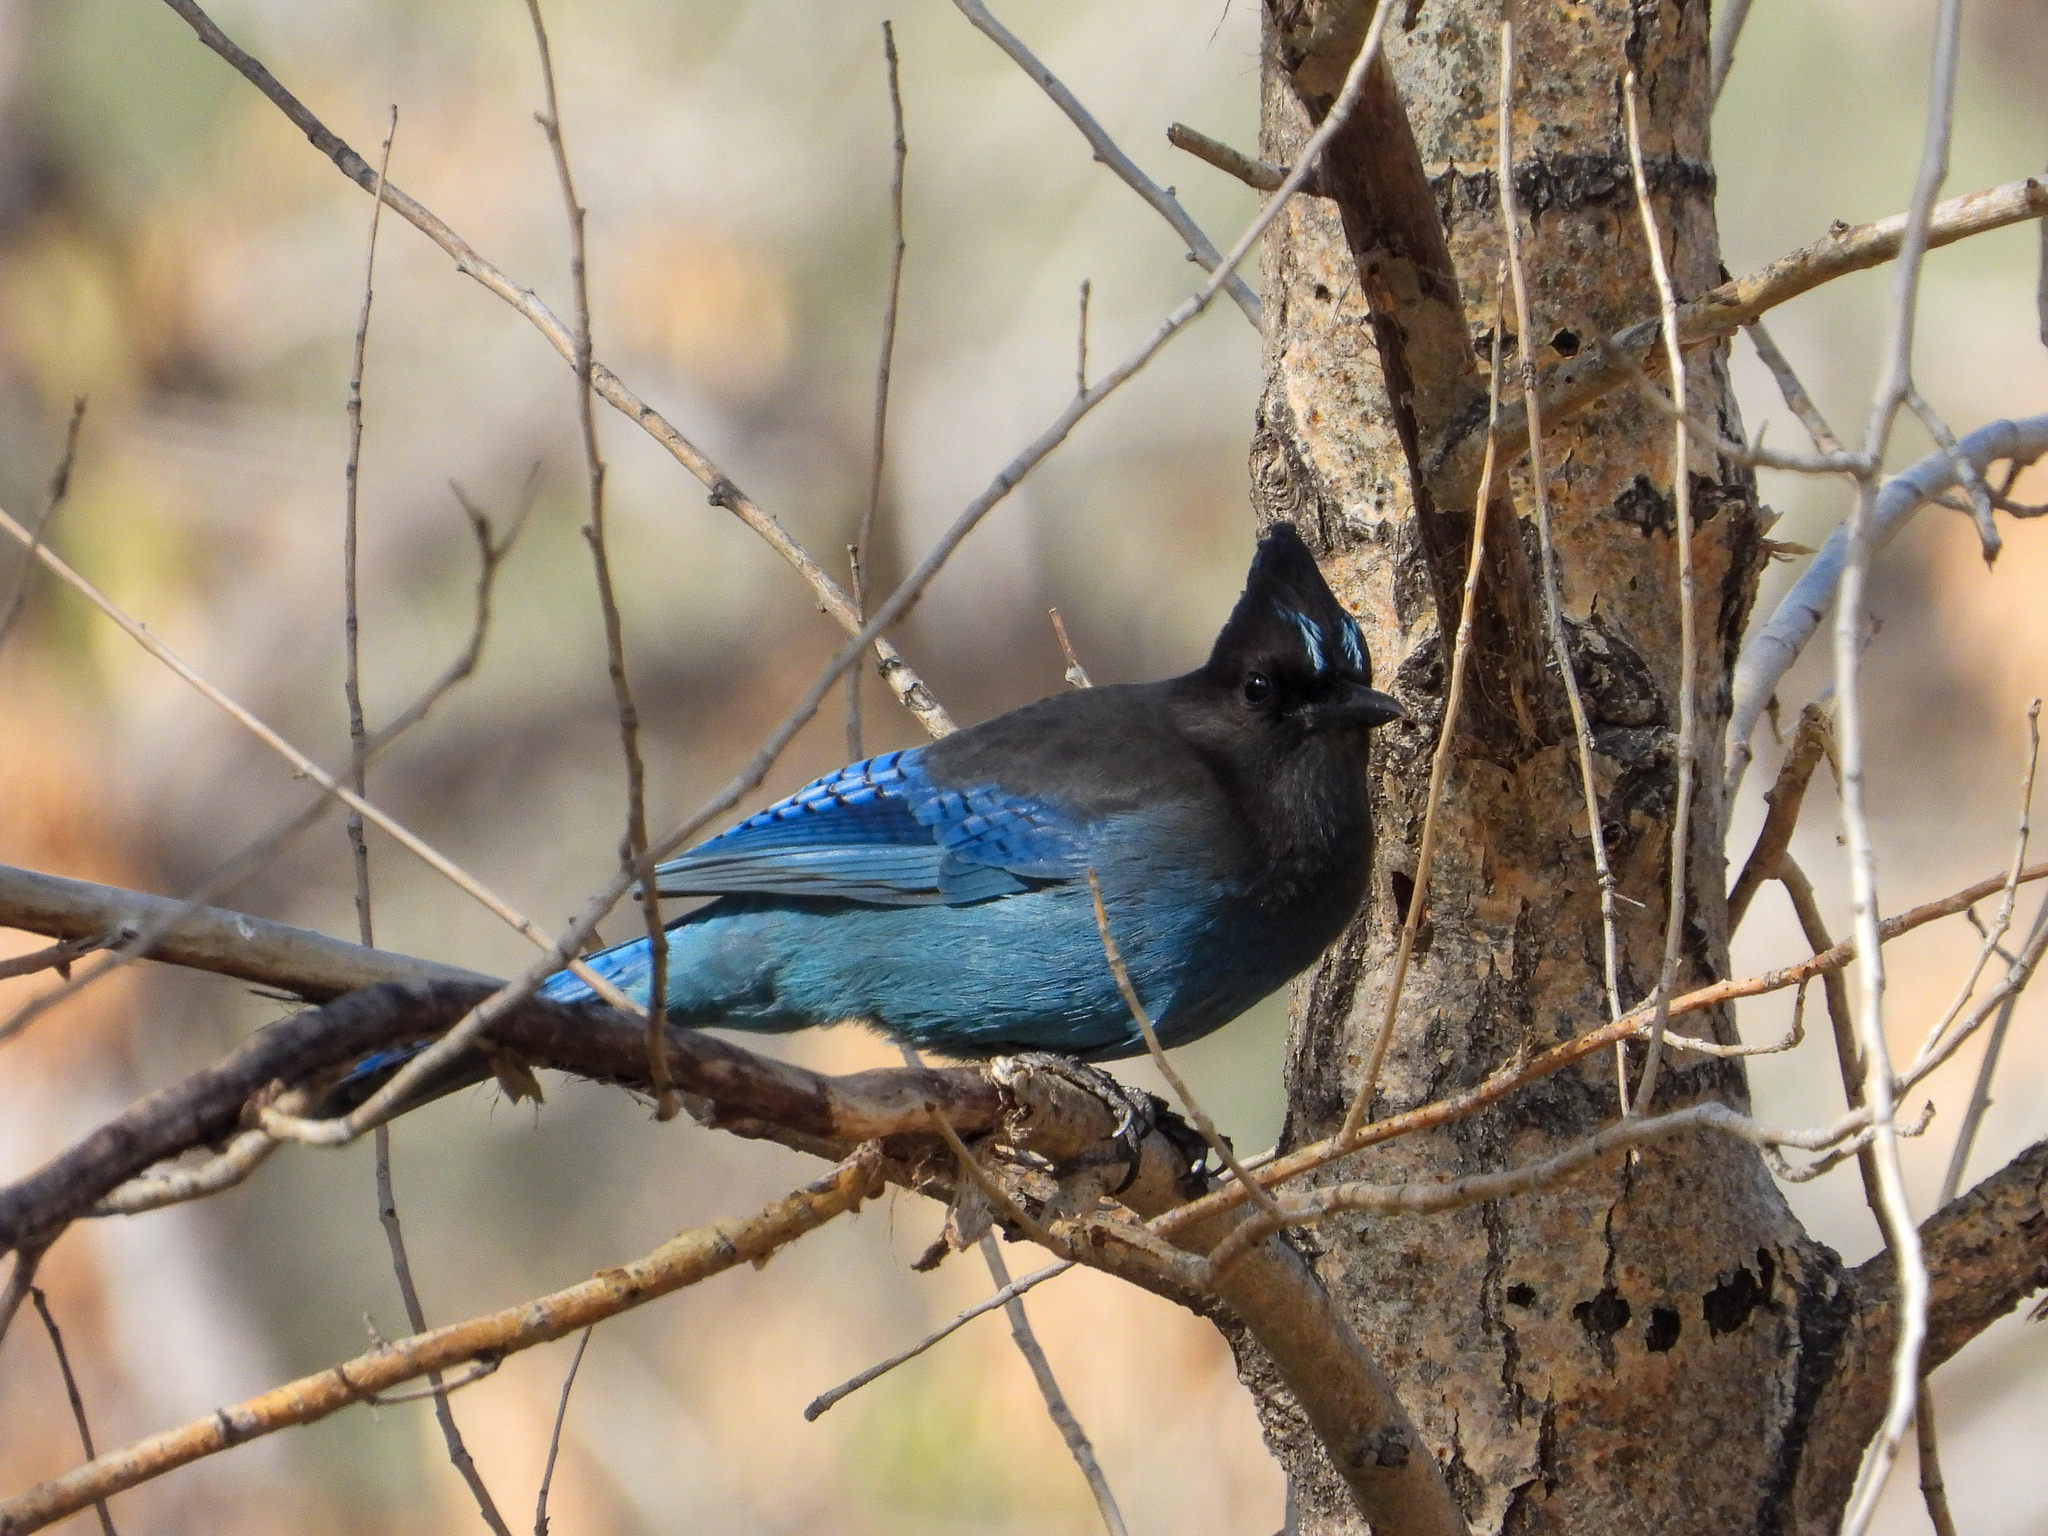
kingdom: Animalia
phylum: Chordata
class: Aves
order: Passeriformes
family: Corvidae
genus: Cyanocitta
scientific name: Cyanocitta stelleri
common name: Steller's jay
